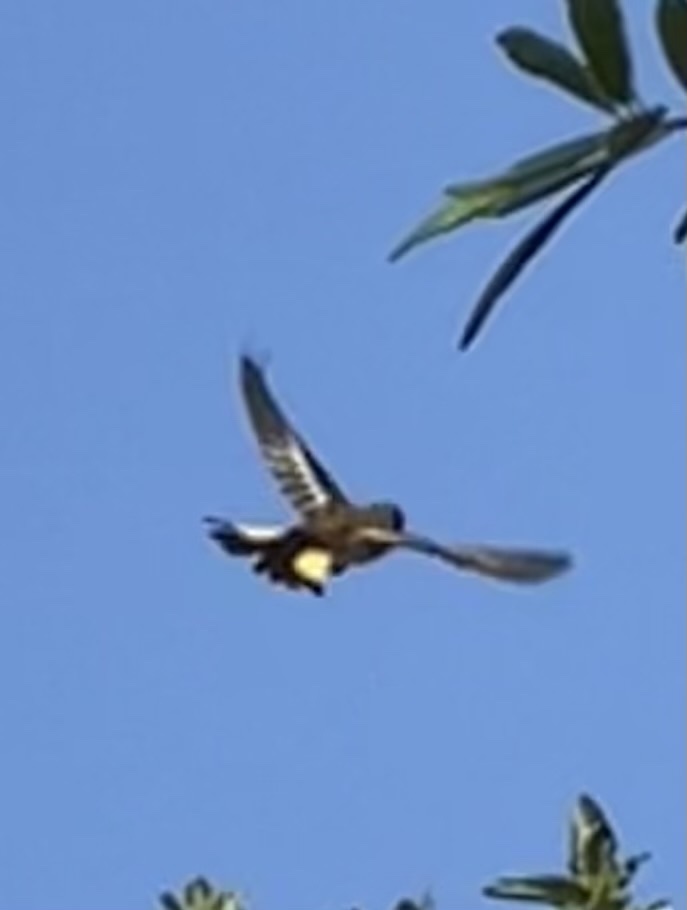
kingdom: Animalia
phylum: Chordata
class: Aves
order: Passeriformes
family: Parulidae
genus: Setophaga
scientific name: Setophaga ruticilla
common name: American redstart
